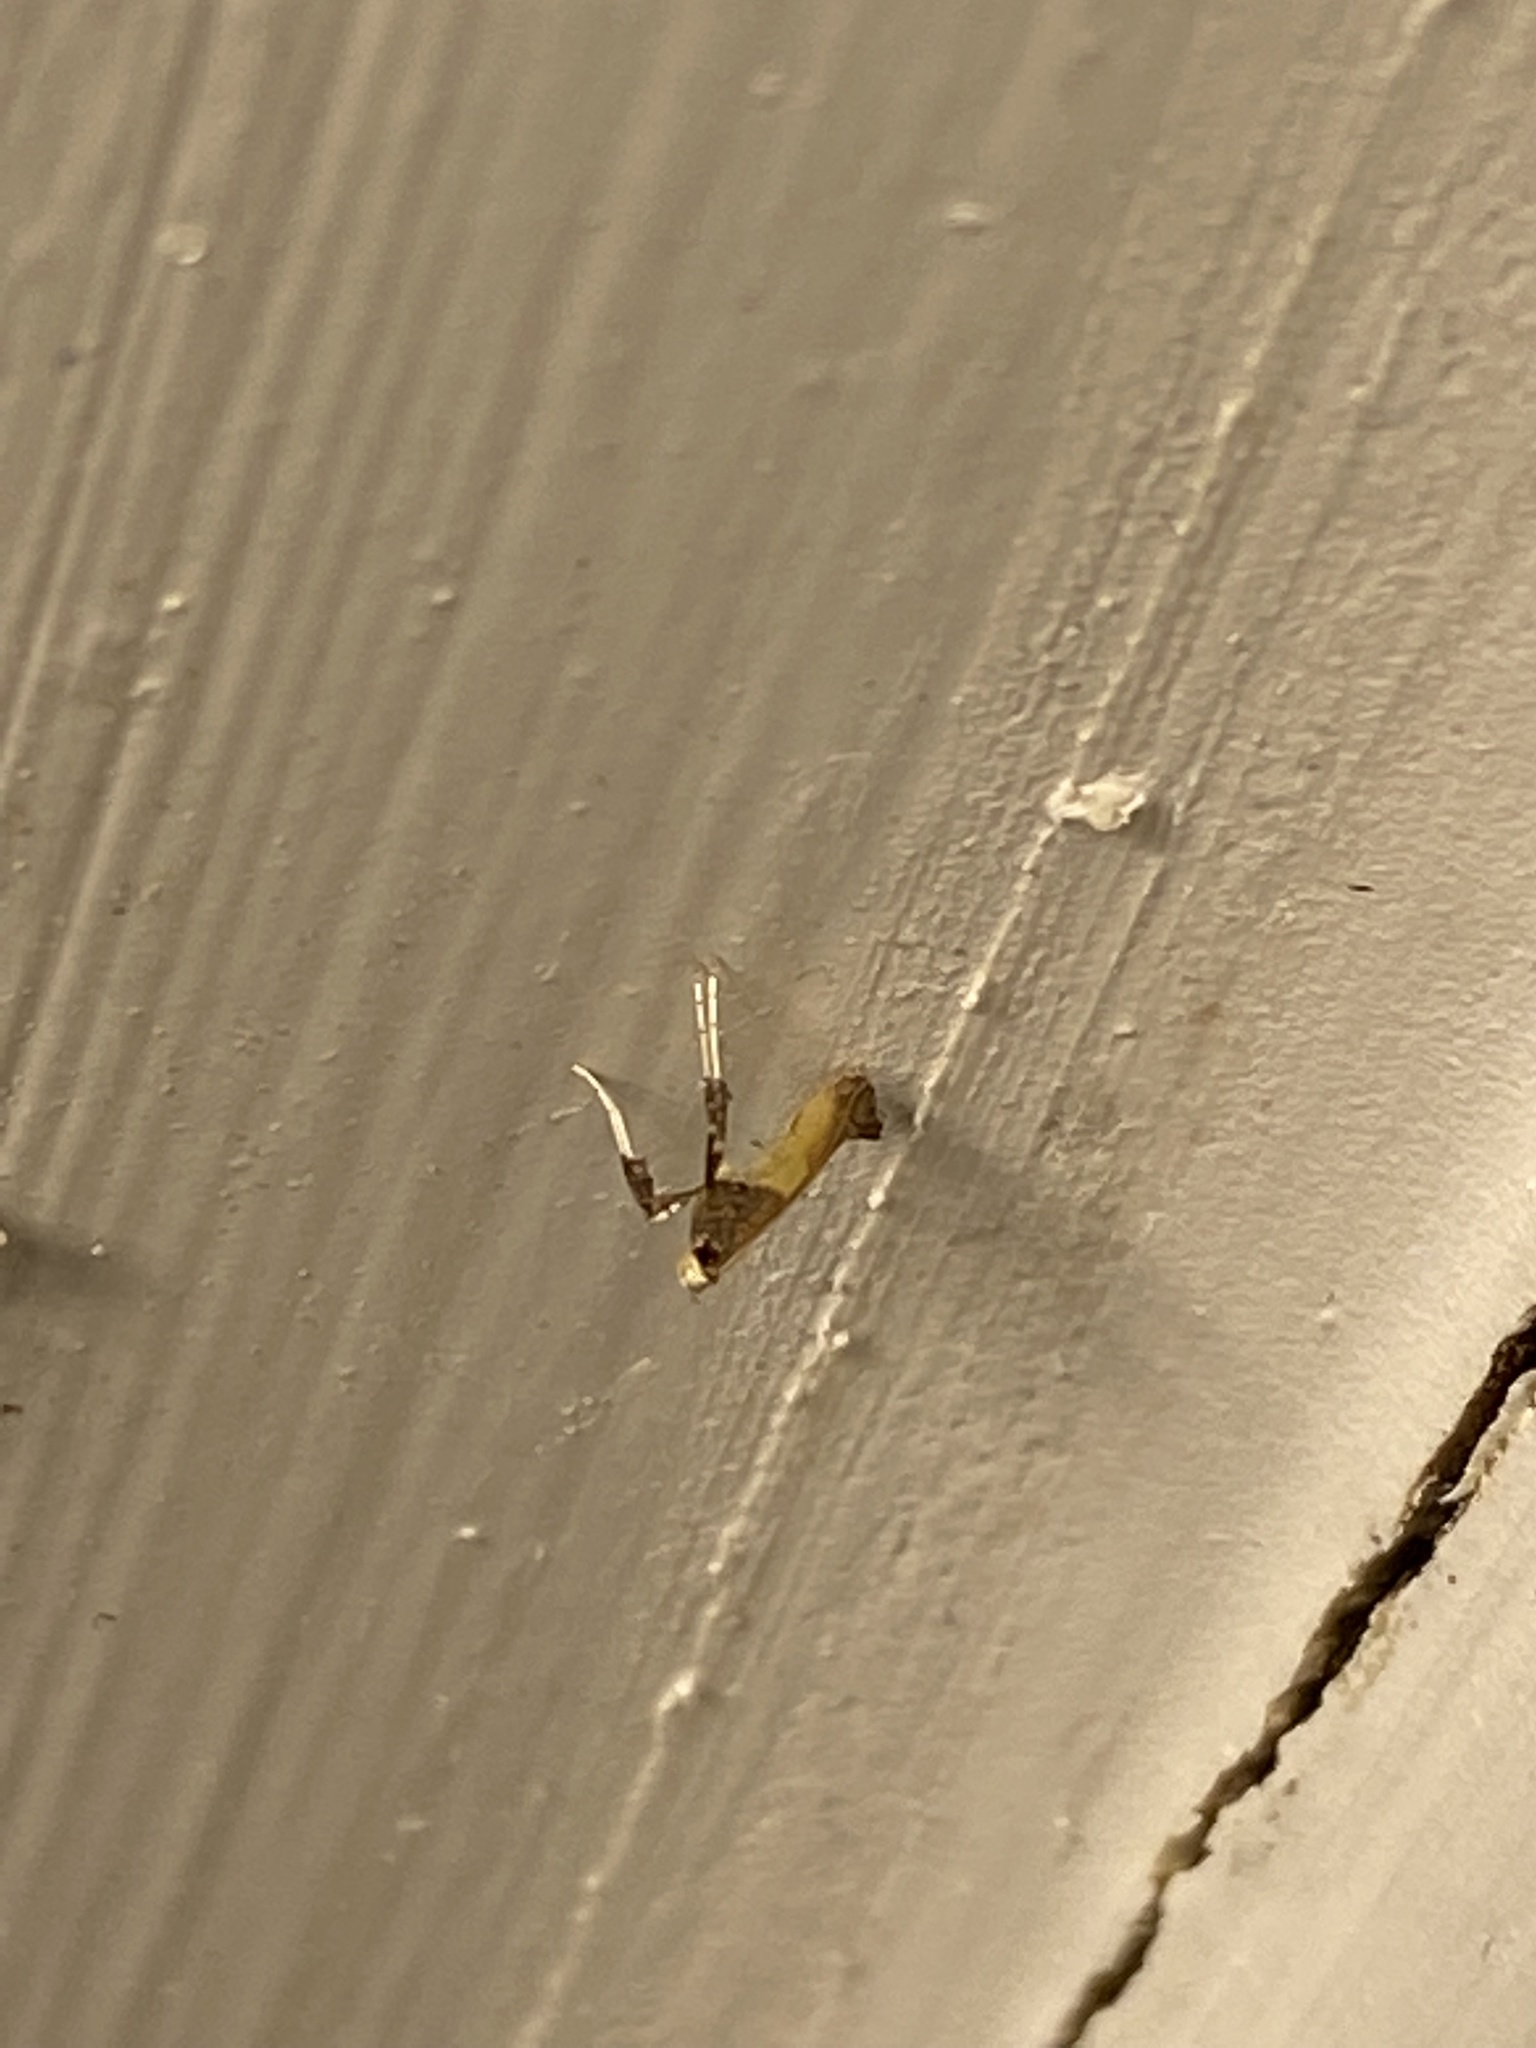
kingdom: Animalia
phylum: Arthropoda
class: Insecta
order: Lepidoptera
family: Gracillariidae
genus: Caloptilia
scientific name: Caloptilia azaleella
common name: Azalea leafminer
